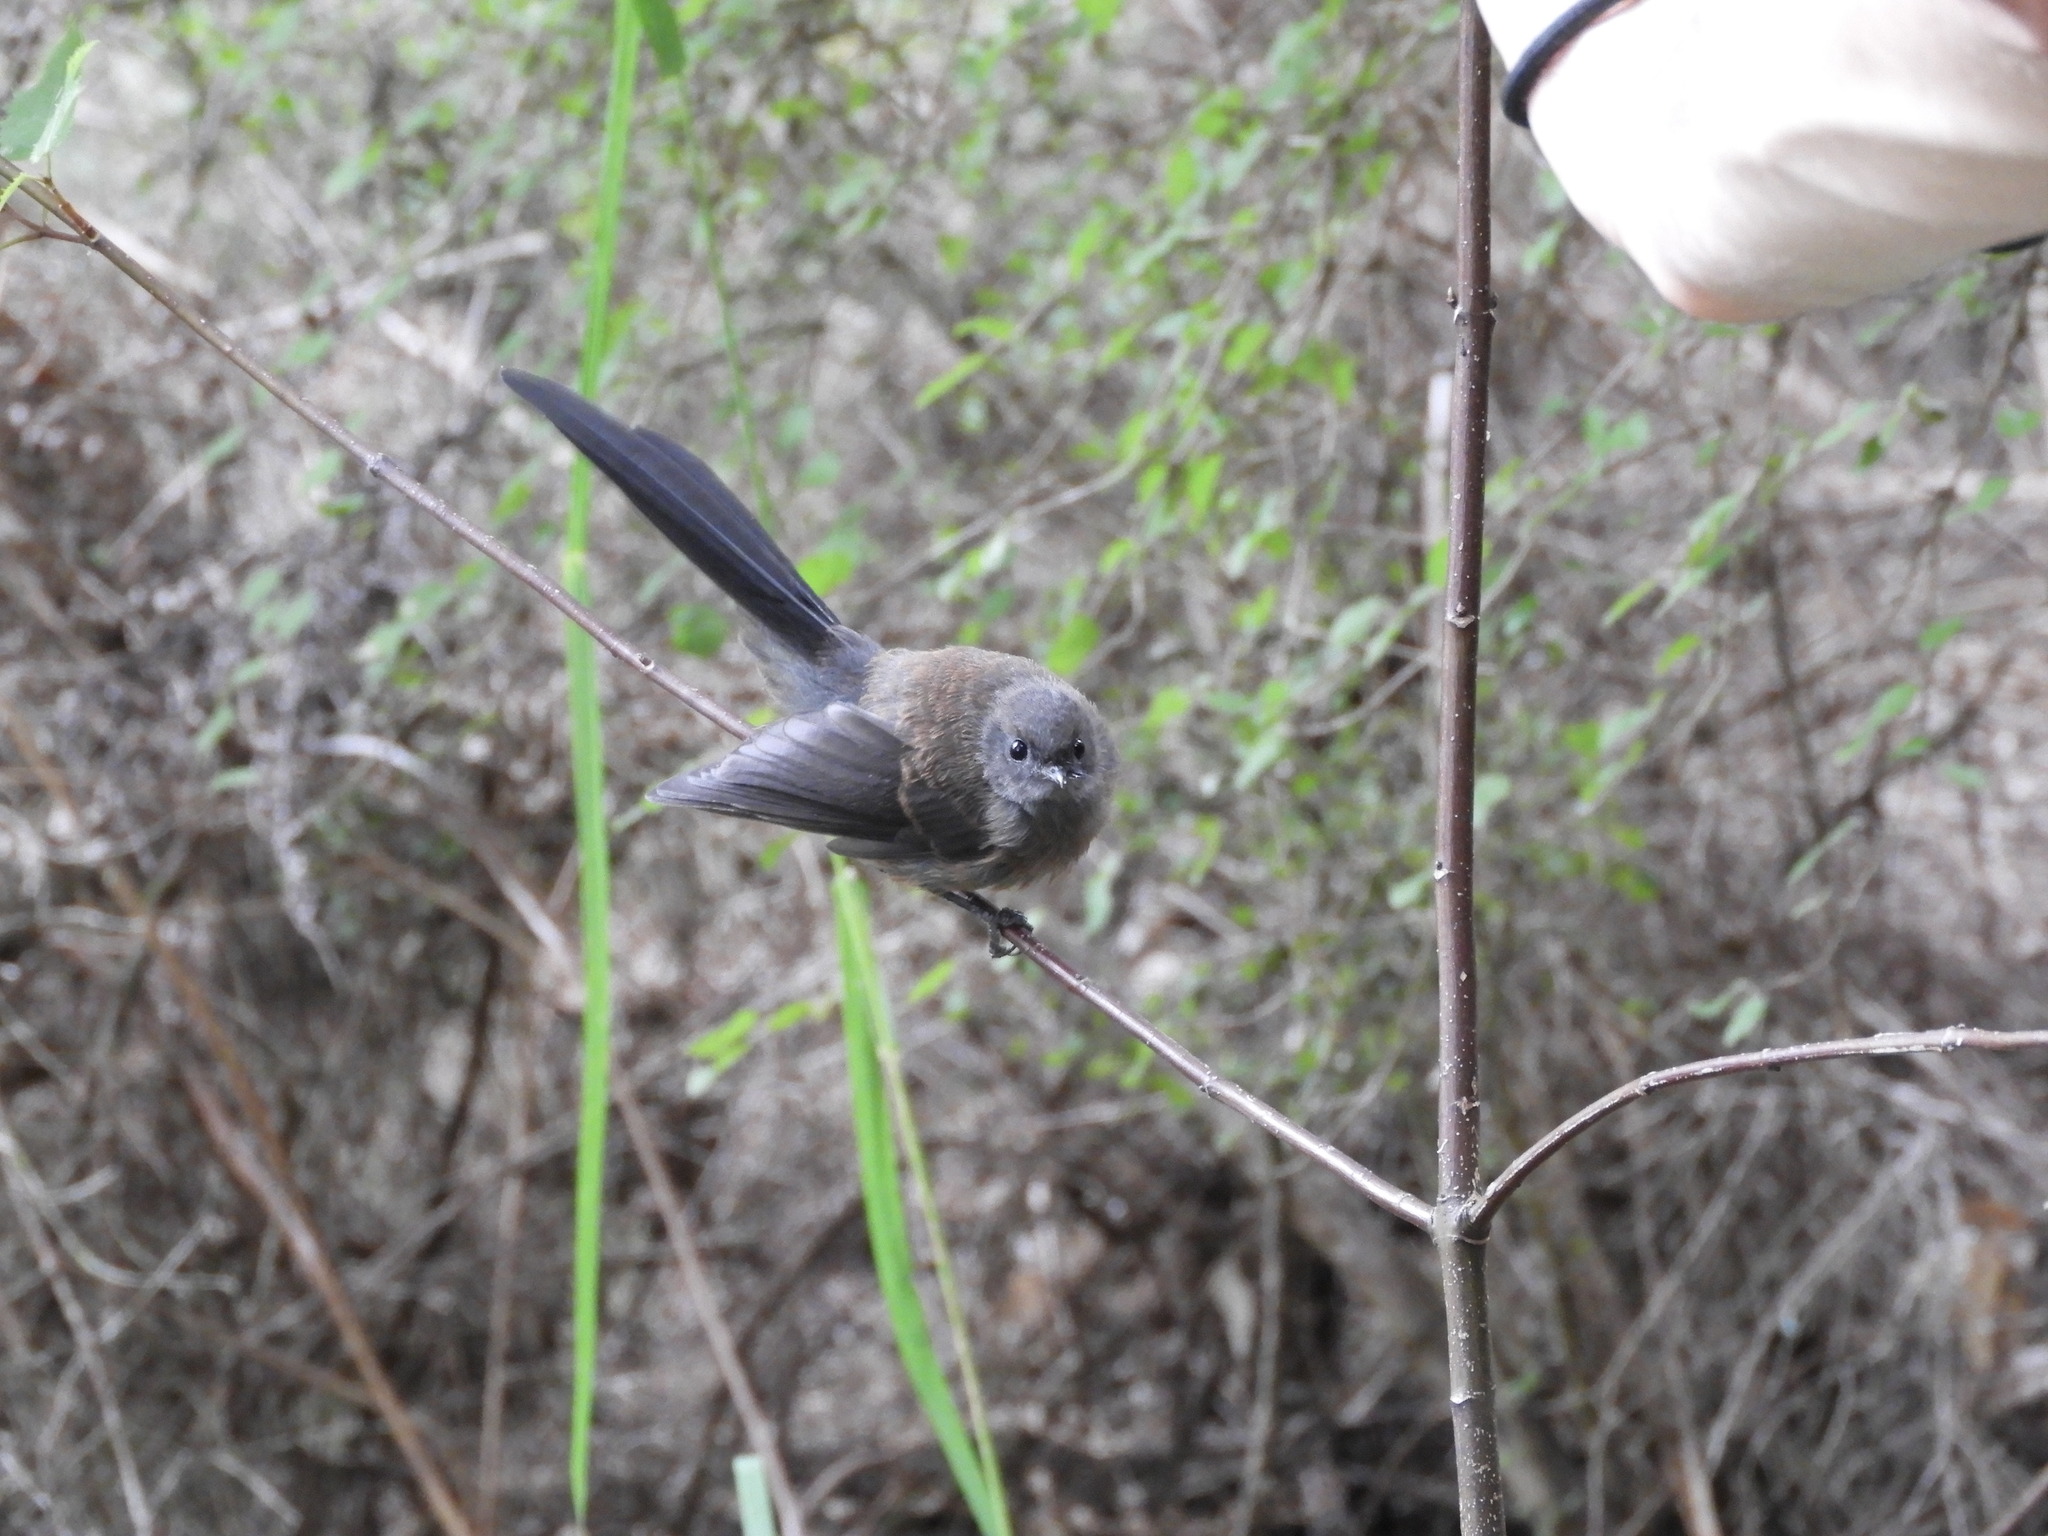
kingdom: Animalia
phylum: Chordata
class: Aves
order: Passeriformes
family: Rhipiduridae
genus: Rhipidura
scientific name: Rhipidura fuliginosa
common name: New zealand fantail
